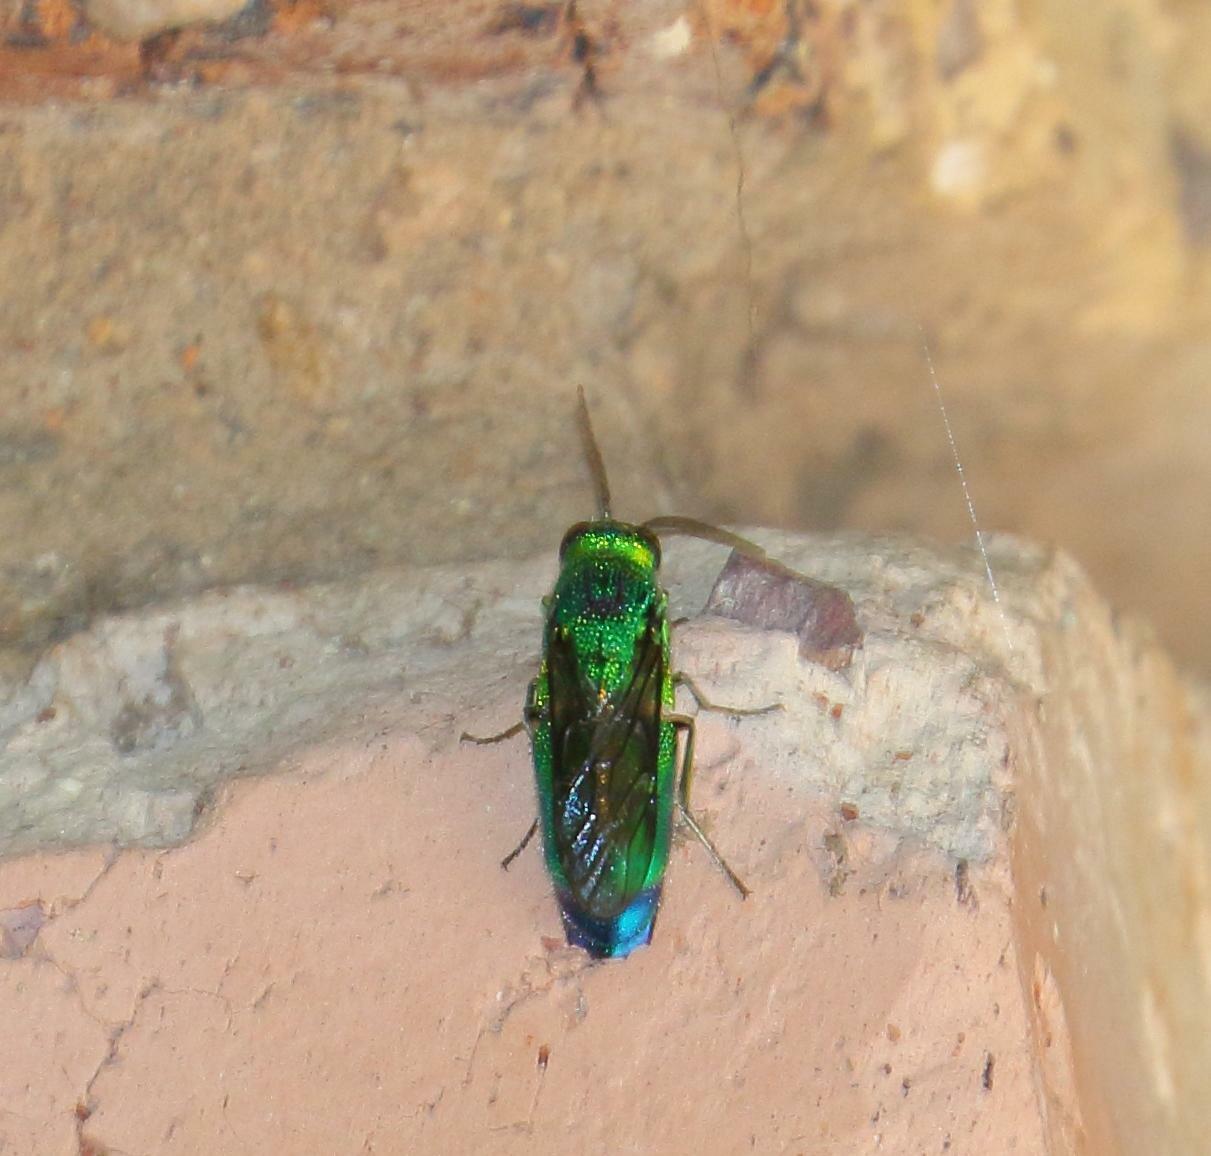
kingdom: Animalia
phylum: Arthropoda
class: Insecta
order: Hymenoptera
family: Chrysididae
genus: Chrysis
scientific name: Chrysis lincea
